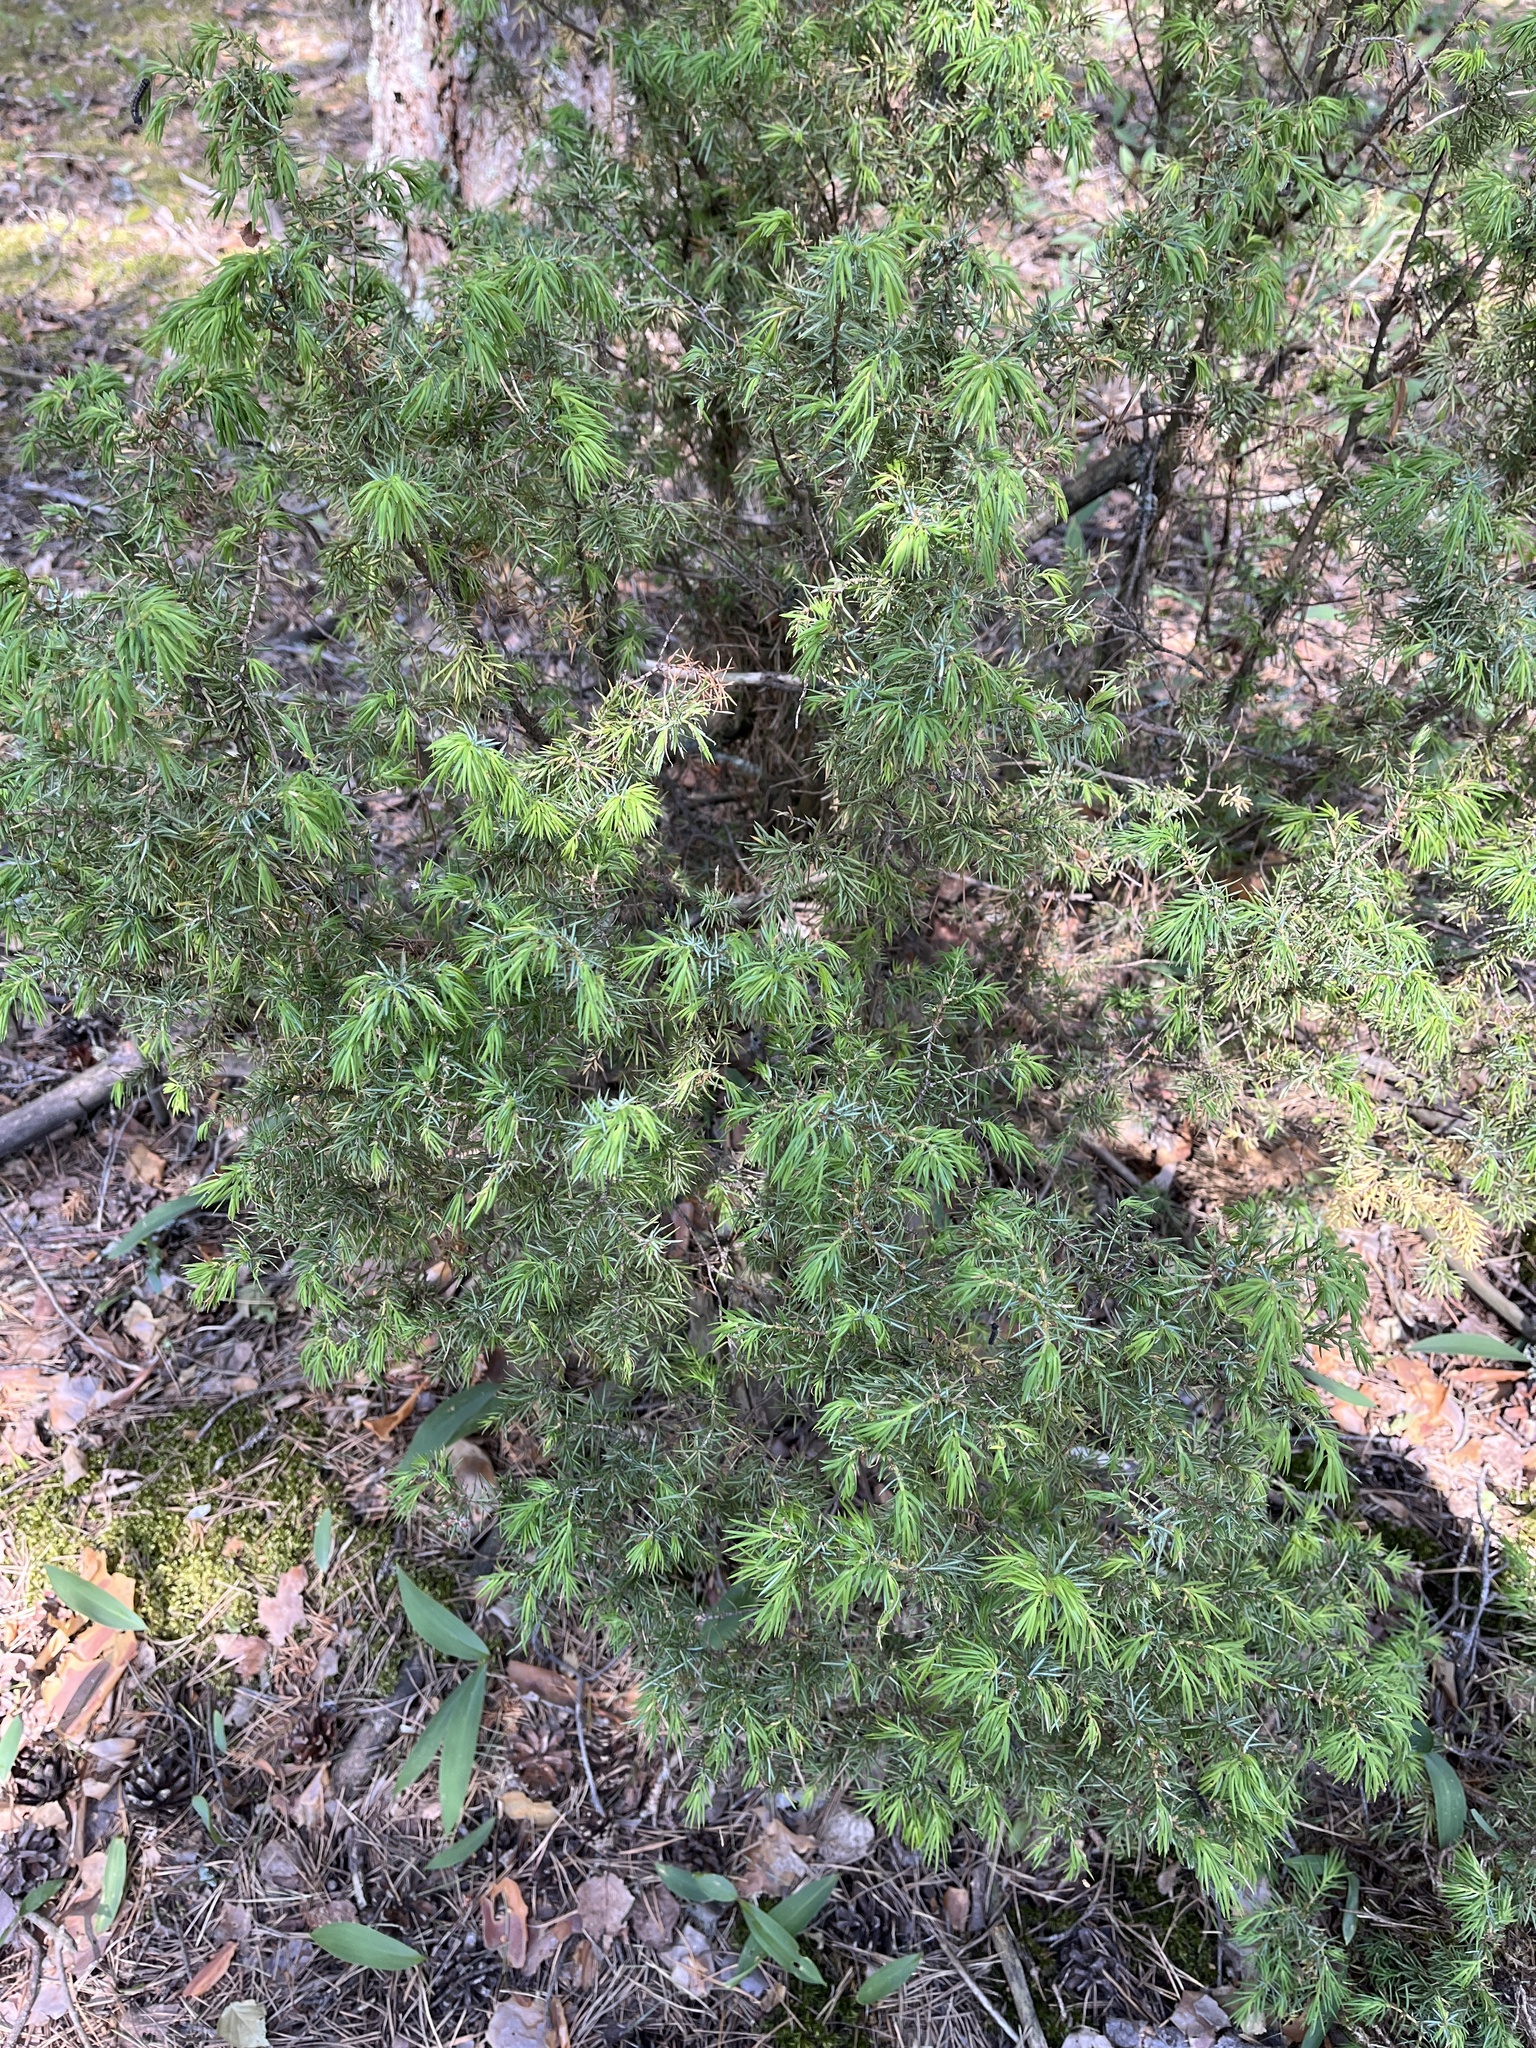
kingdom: Plantae
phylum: Tracheophyta
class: Pinopsida
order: Pinales
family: Cupressaceae
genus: Juniperus
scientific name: Juniperus communis
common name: Common juniper
